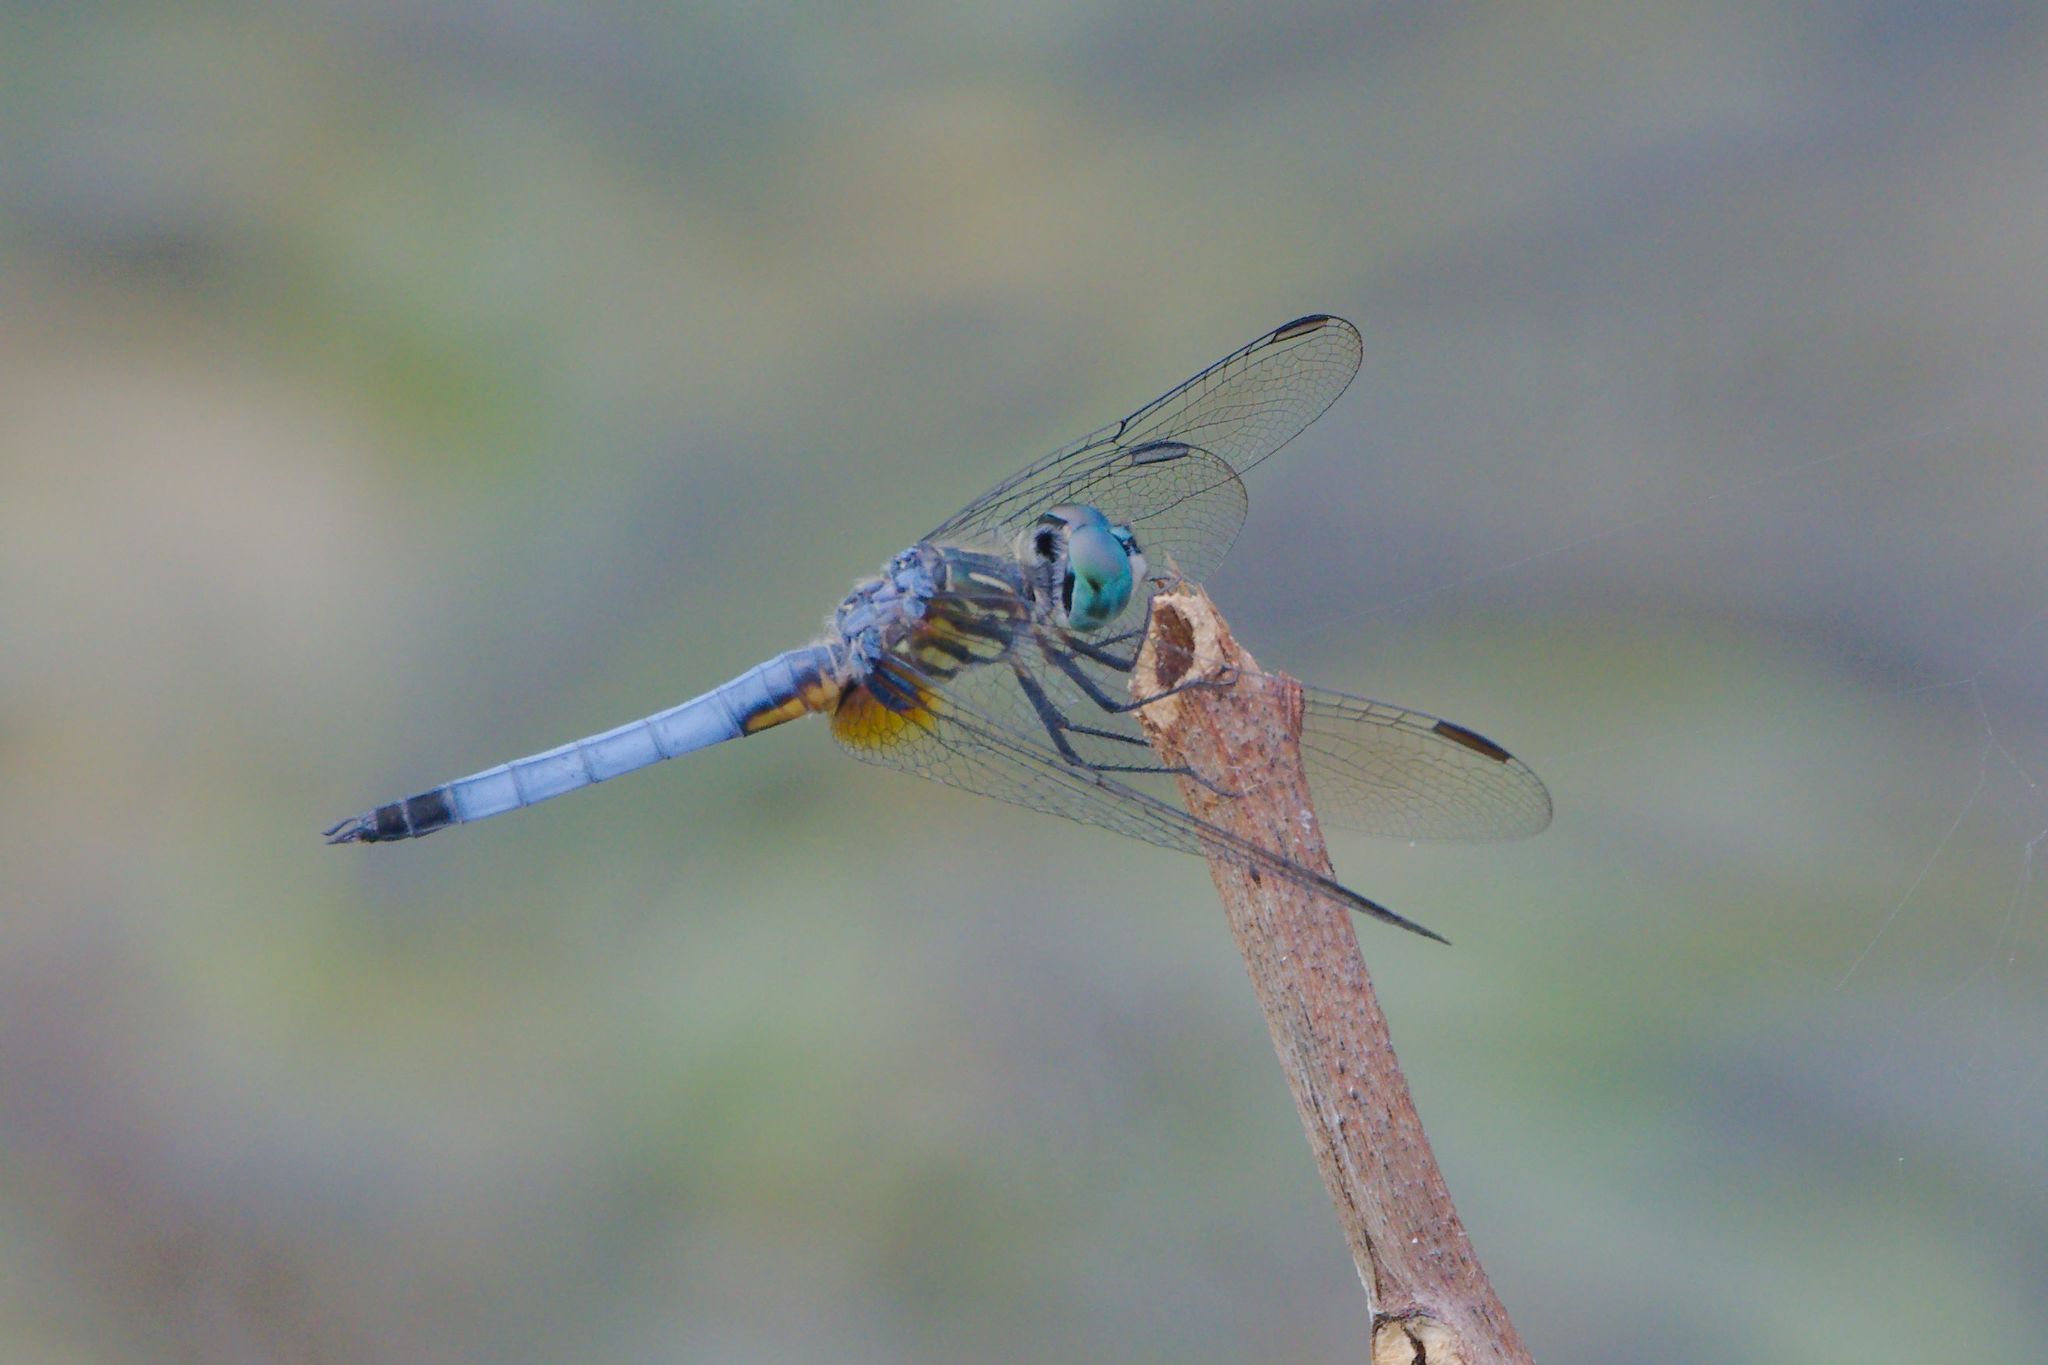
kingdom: Animalia
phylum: Arthropoda
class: Insecta
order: Odonata
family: Libellulidae
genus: Pachydiplax
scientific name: Pachydiplax longipennis
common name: Blue dasher
